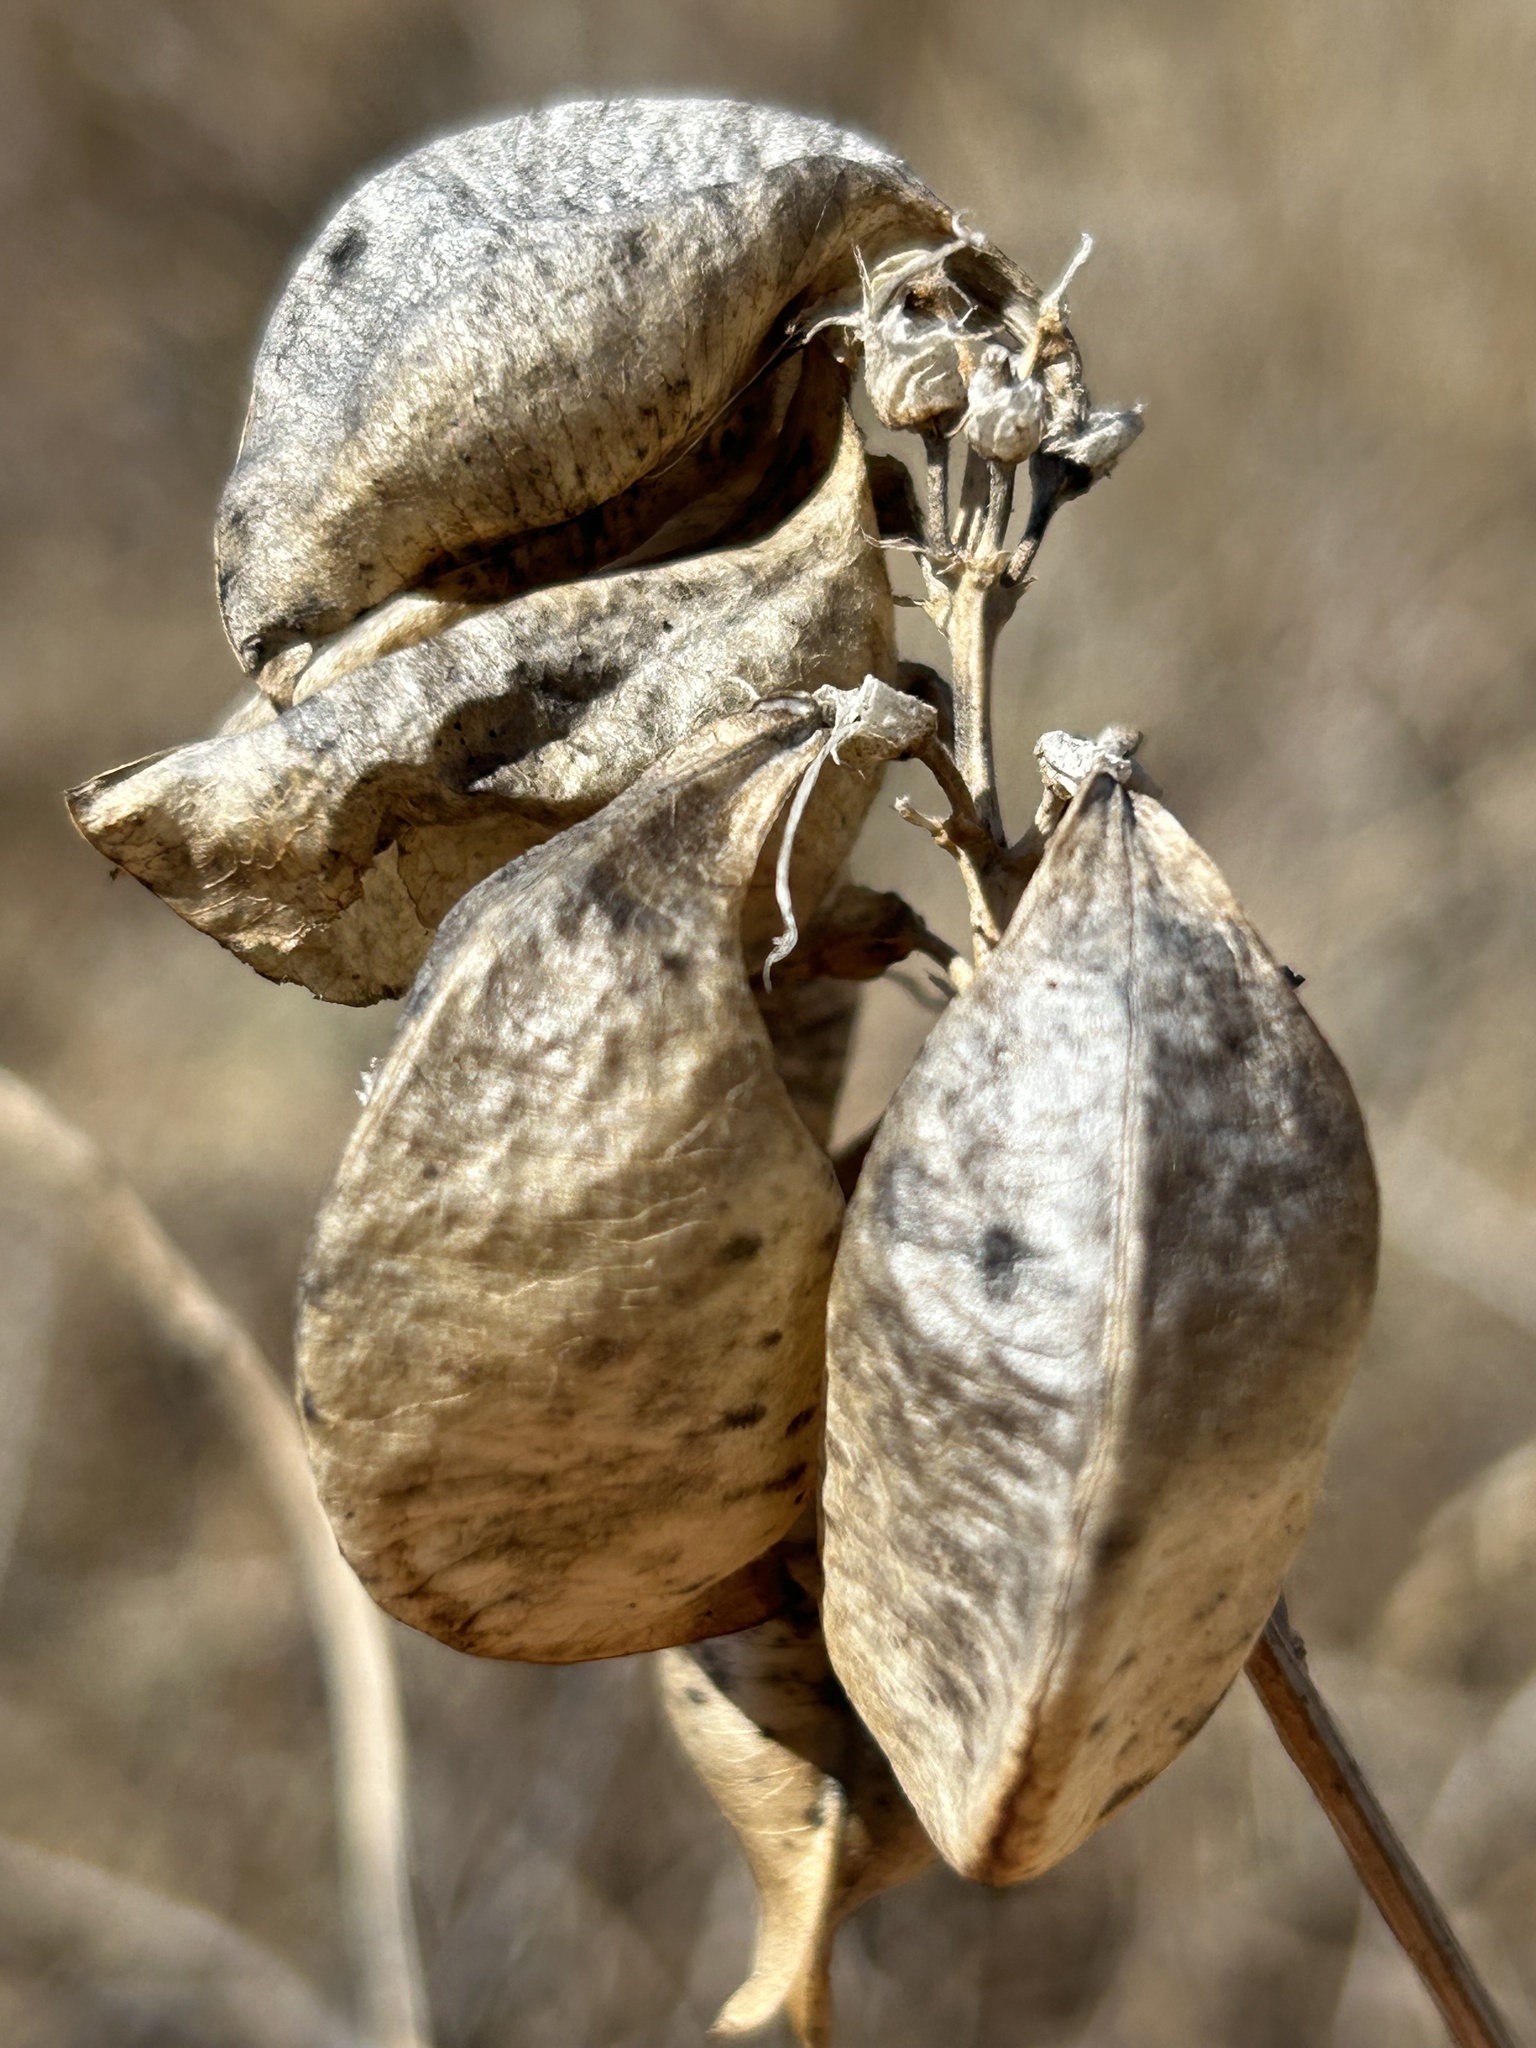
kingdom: Plantae
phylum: Tracheophyta
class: Magnoliopsida
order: Fabales
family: Fabaceae
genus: Astragalus
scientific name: Astragalus curtipes
